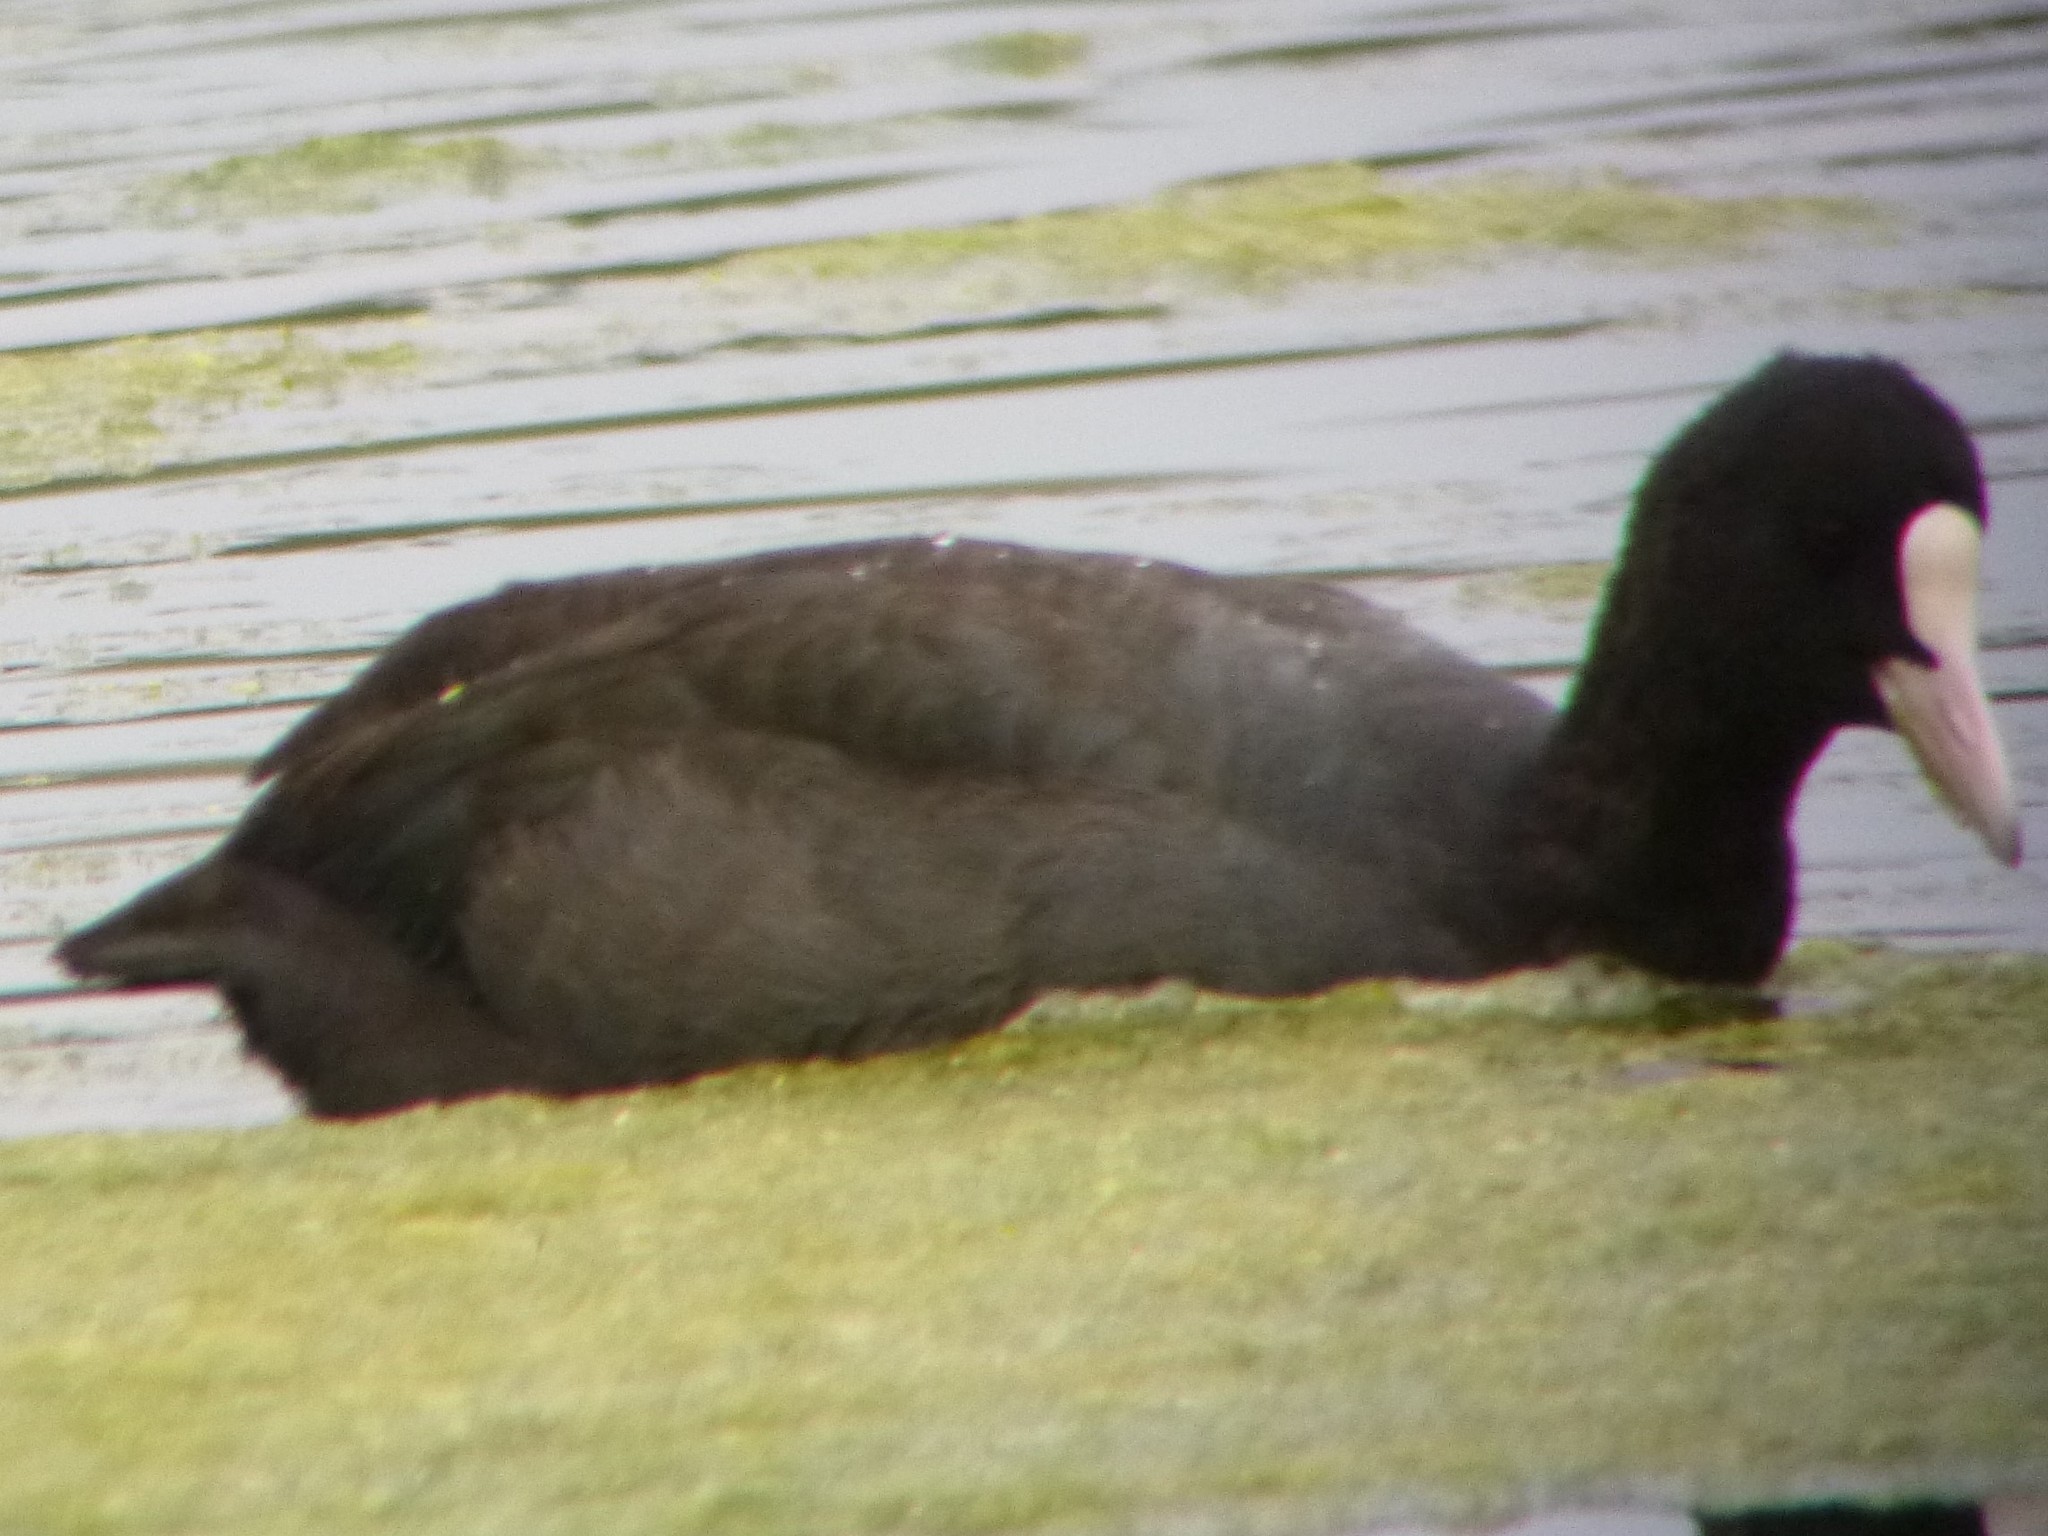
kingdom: Animalia
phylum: Chordata
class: Aves
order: Gruiformes
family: Rallidae
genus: Fulica
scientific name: Fulica atra
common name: Eurasian coot
